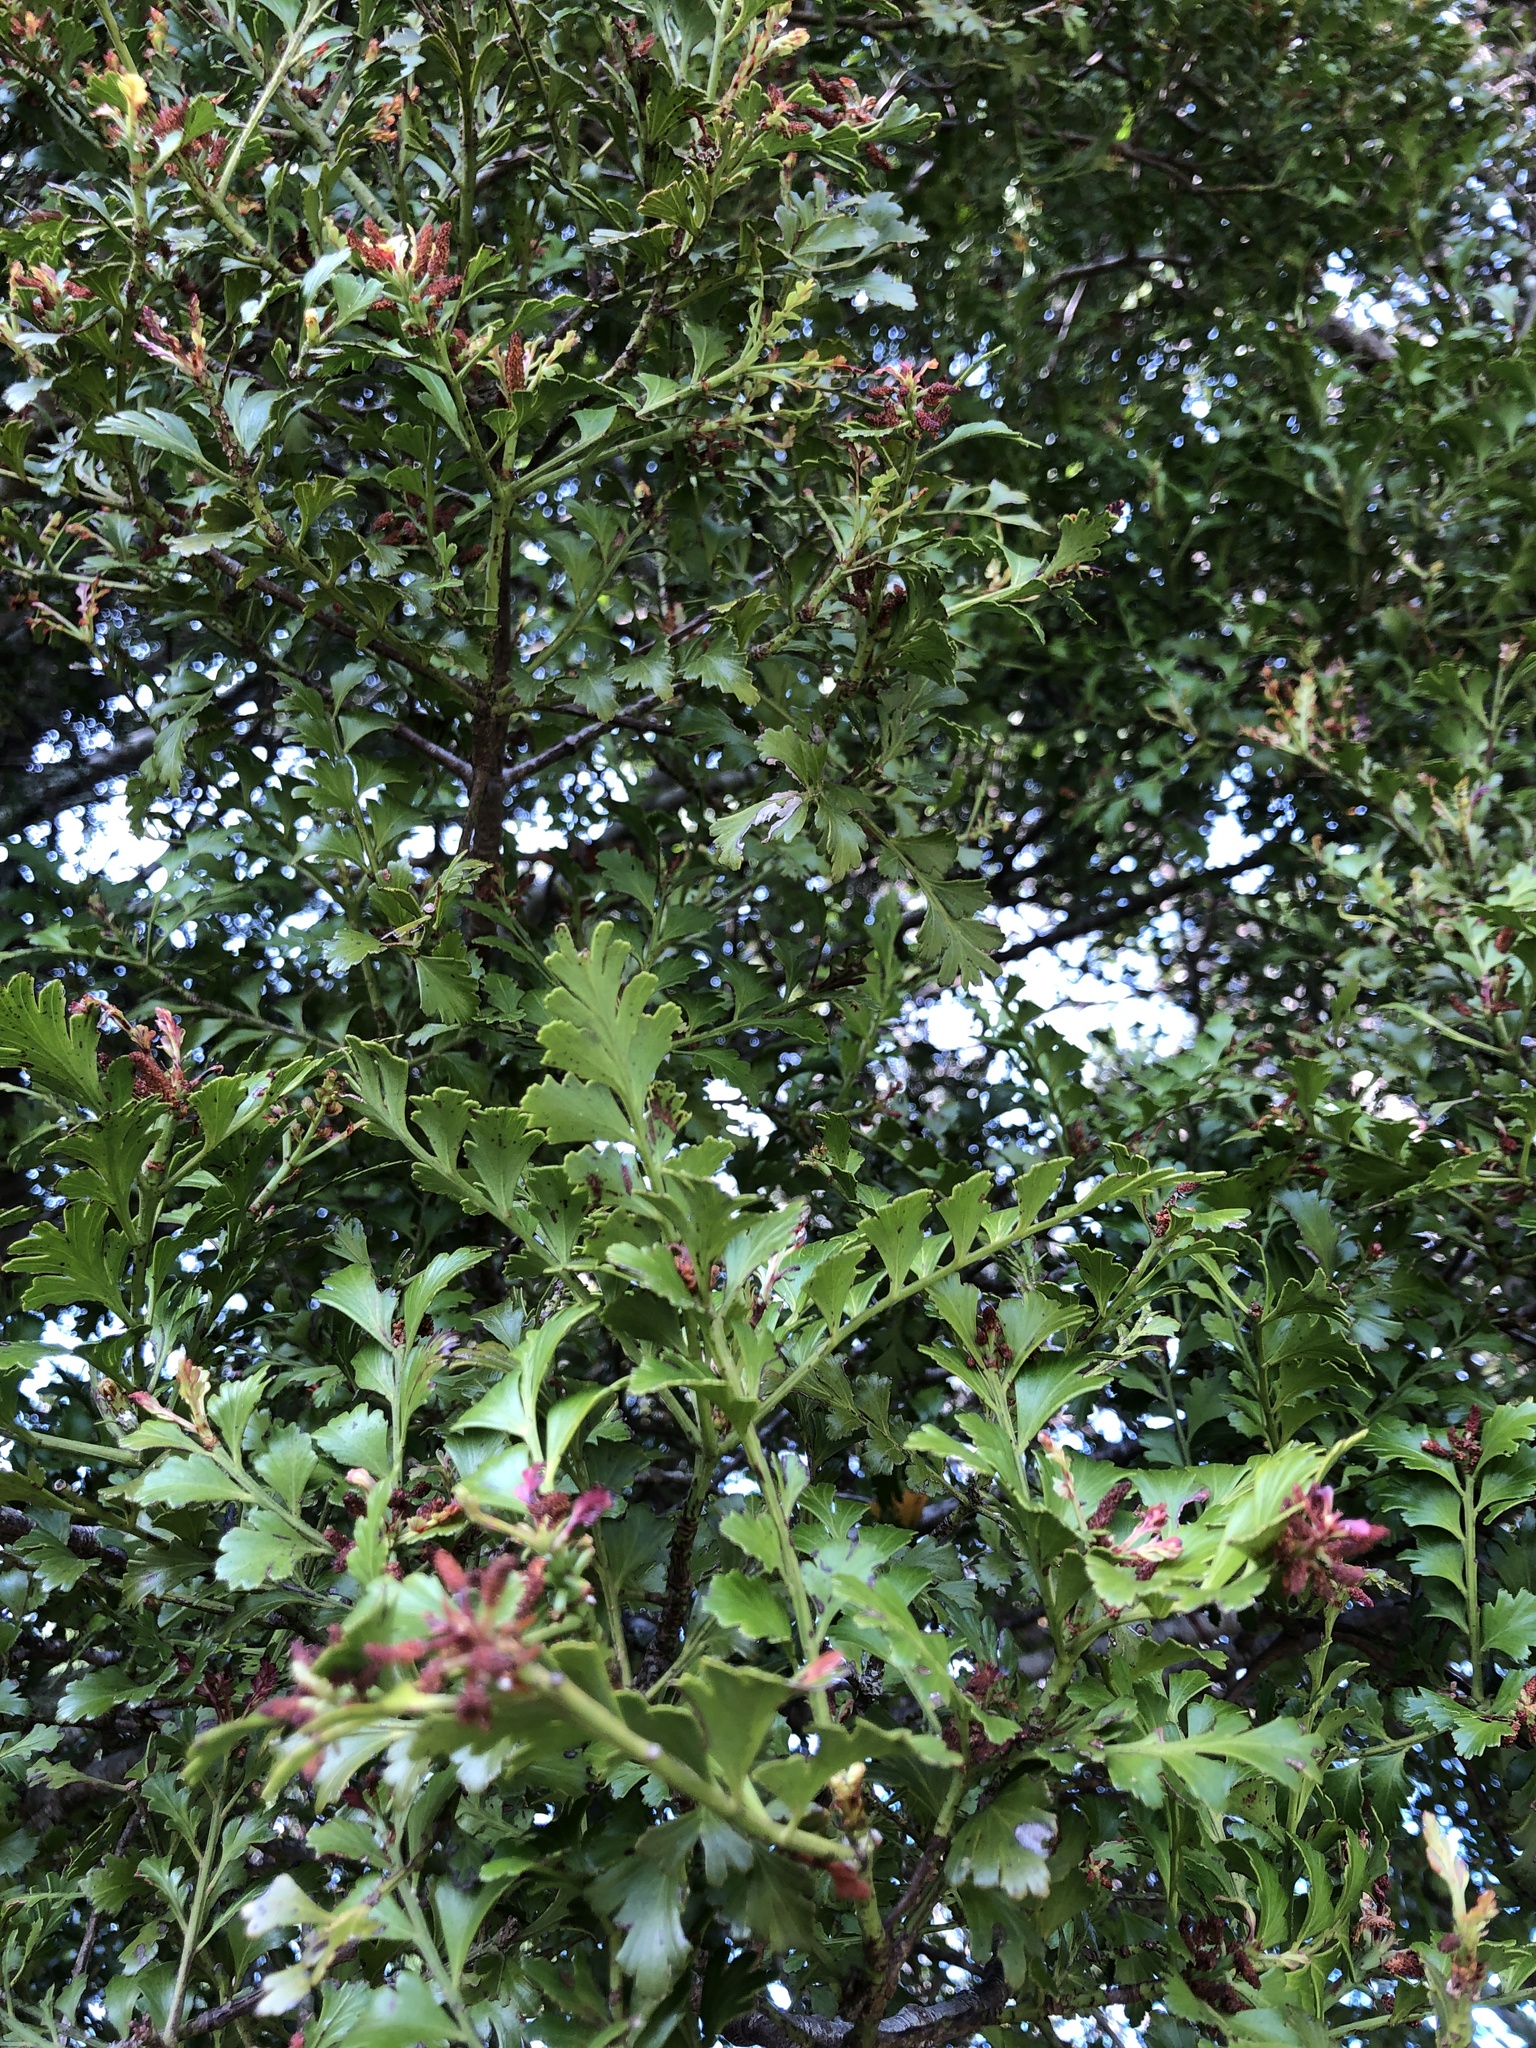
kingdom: Plantae
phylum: Tracheophyta
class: Pinopsida
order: Pinales
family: Phyllocladaceae
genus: Phyllocladus
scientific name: Phyllocladus trichomanoides
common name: Celery pine
